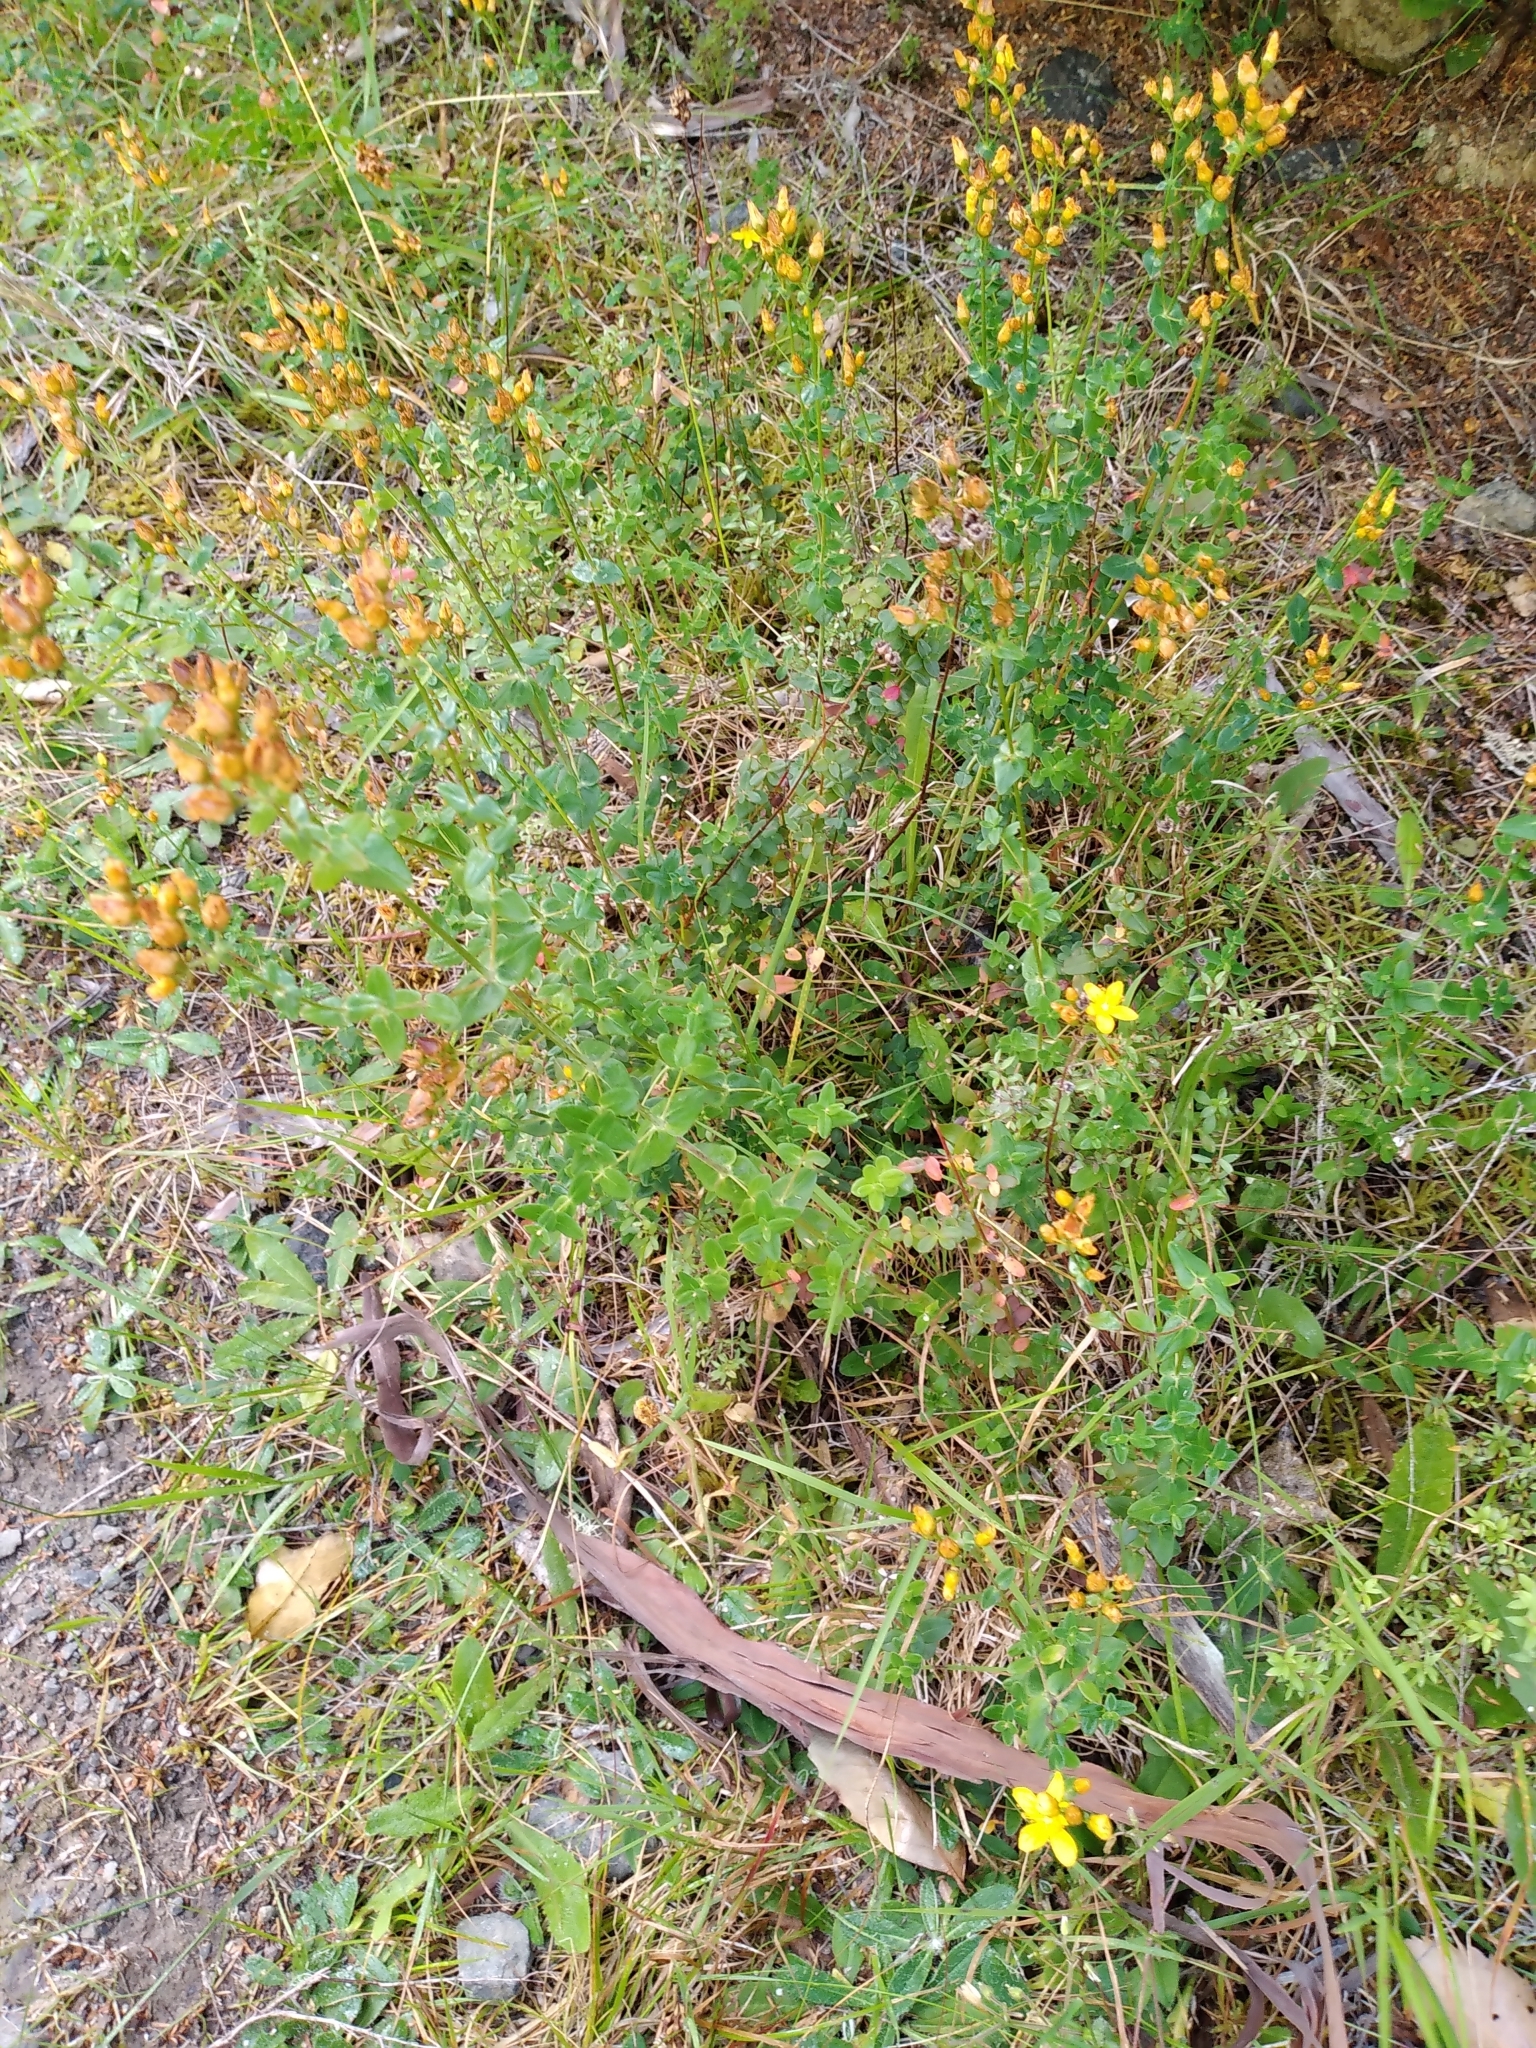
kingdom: Plantae
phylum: Tracheophyta
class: Magnoliopsida
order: Malpighiales
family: Hypericaceae
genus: Hypericum
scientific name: Hypericum perforatum
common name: Common st. johnswort
